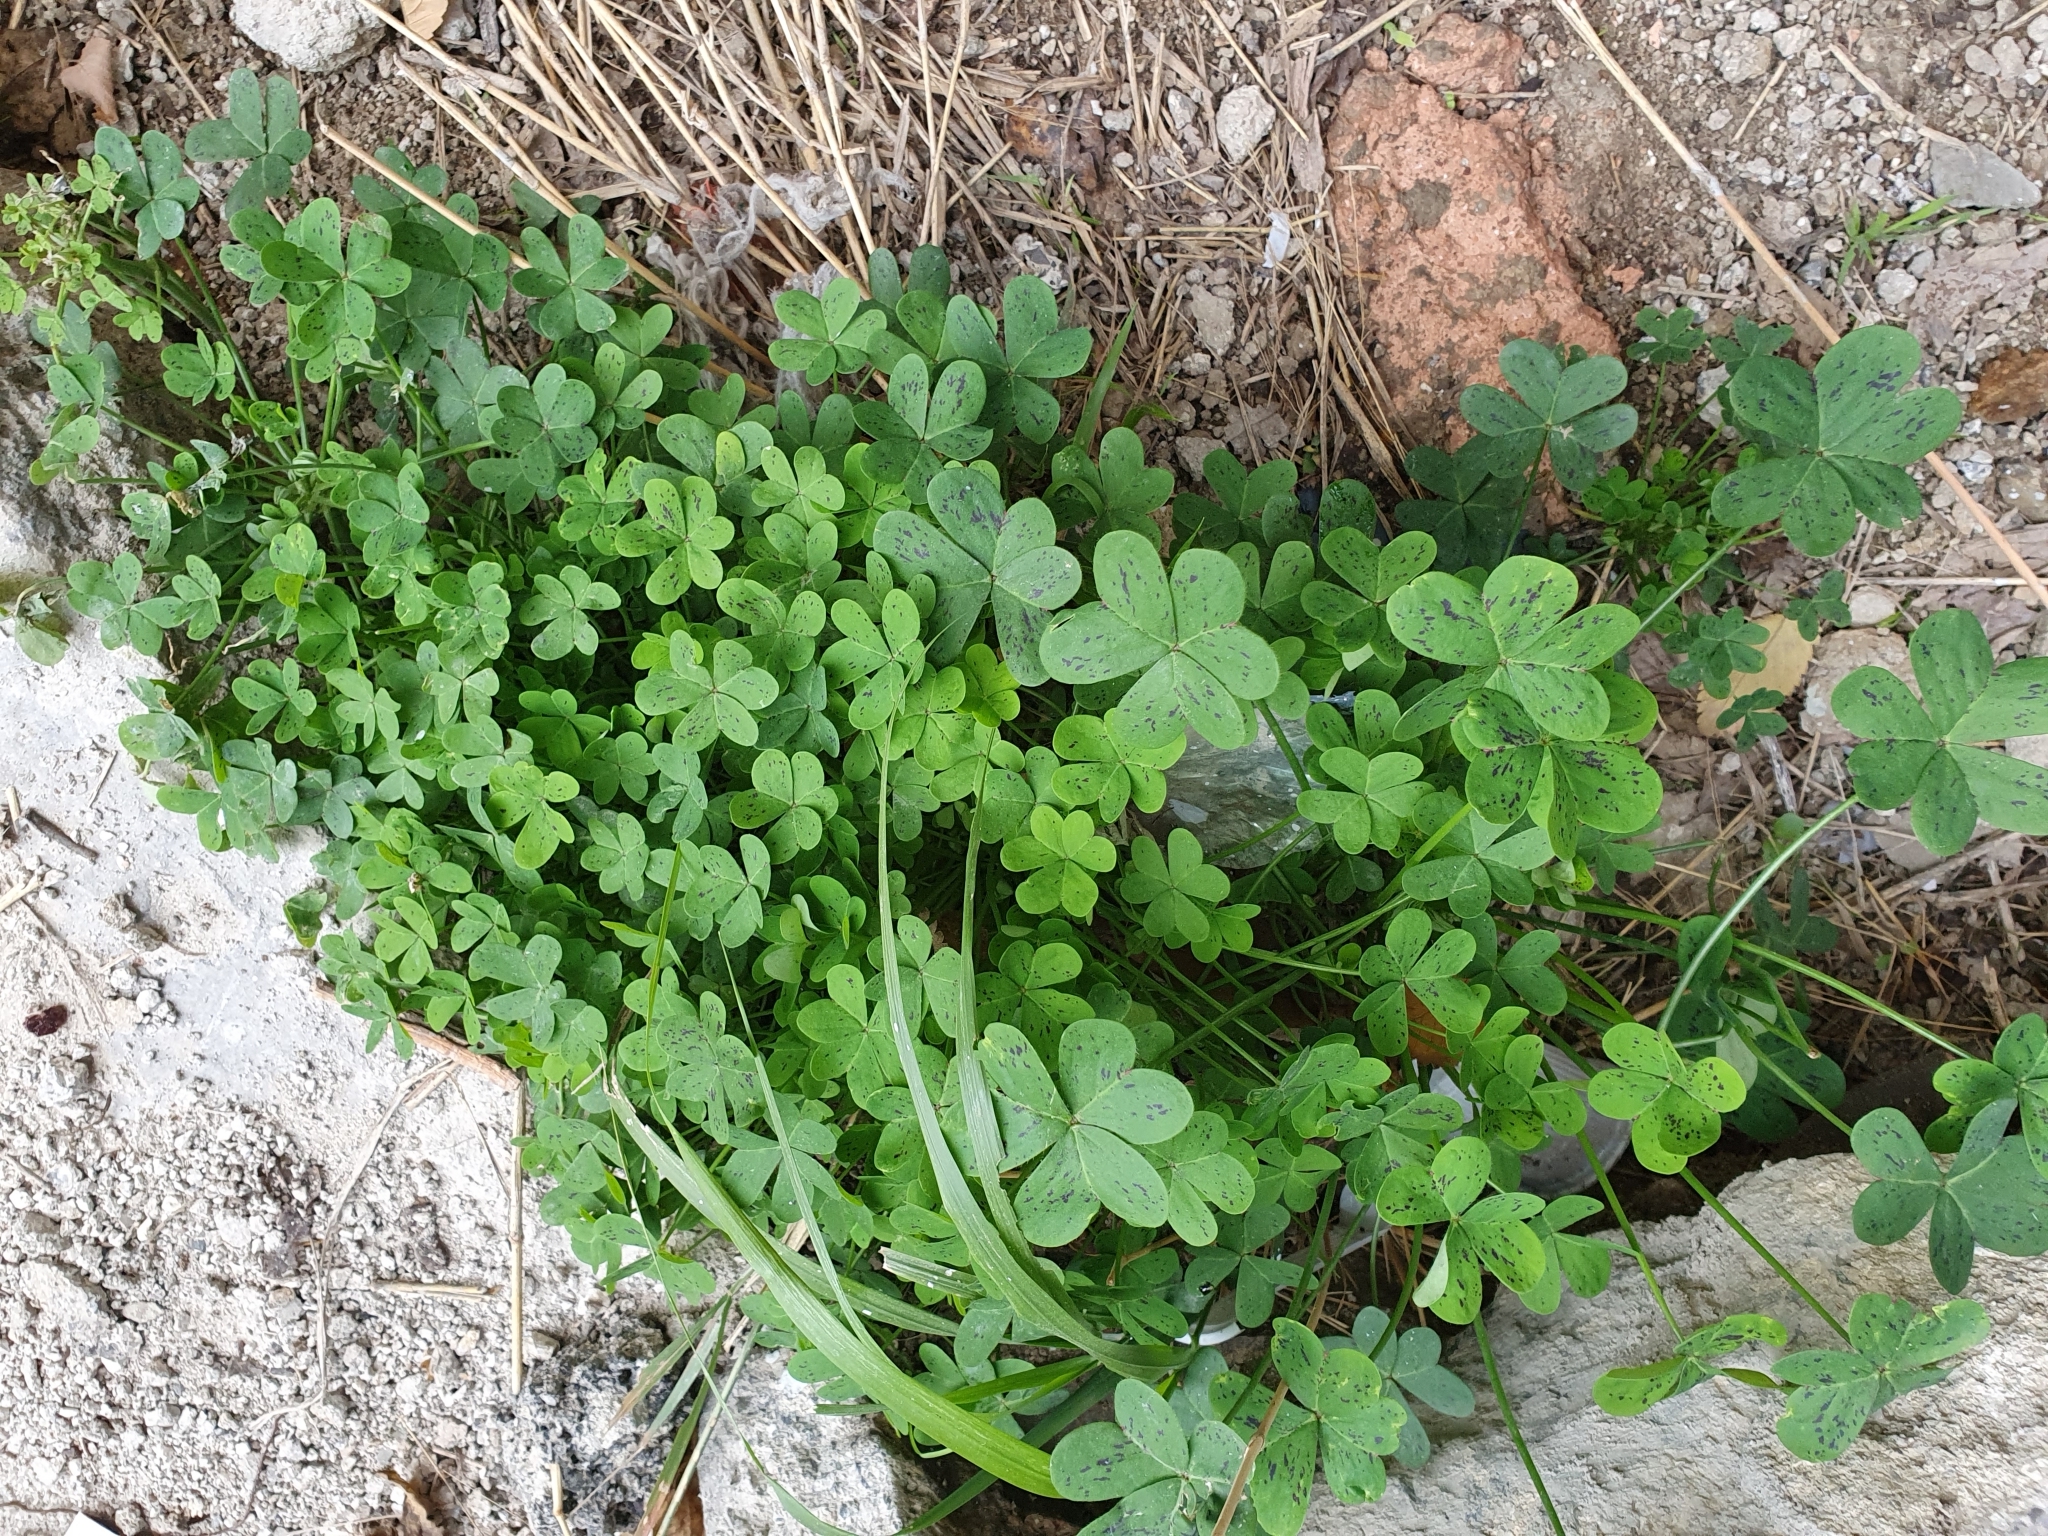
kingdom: Plantae
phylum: Tracheophyta
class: Magnoliopsida
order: Oxalidales
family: Oxalidaceae
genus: Oxalis
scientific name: Oxalis pes-caprae
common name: Bermuda-buttercup
